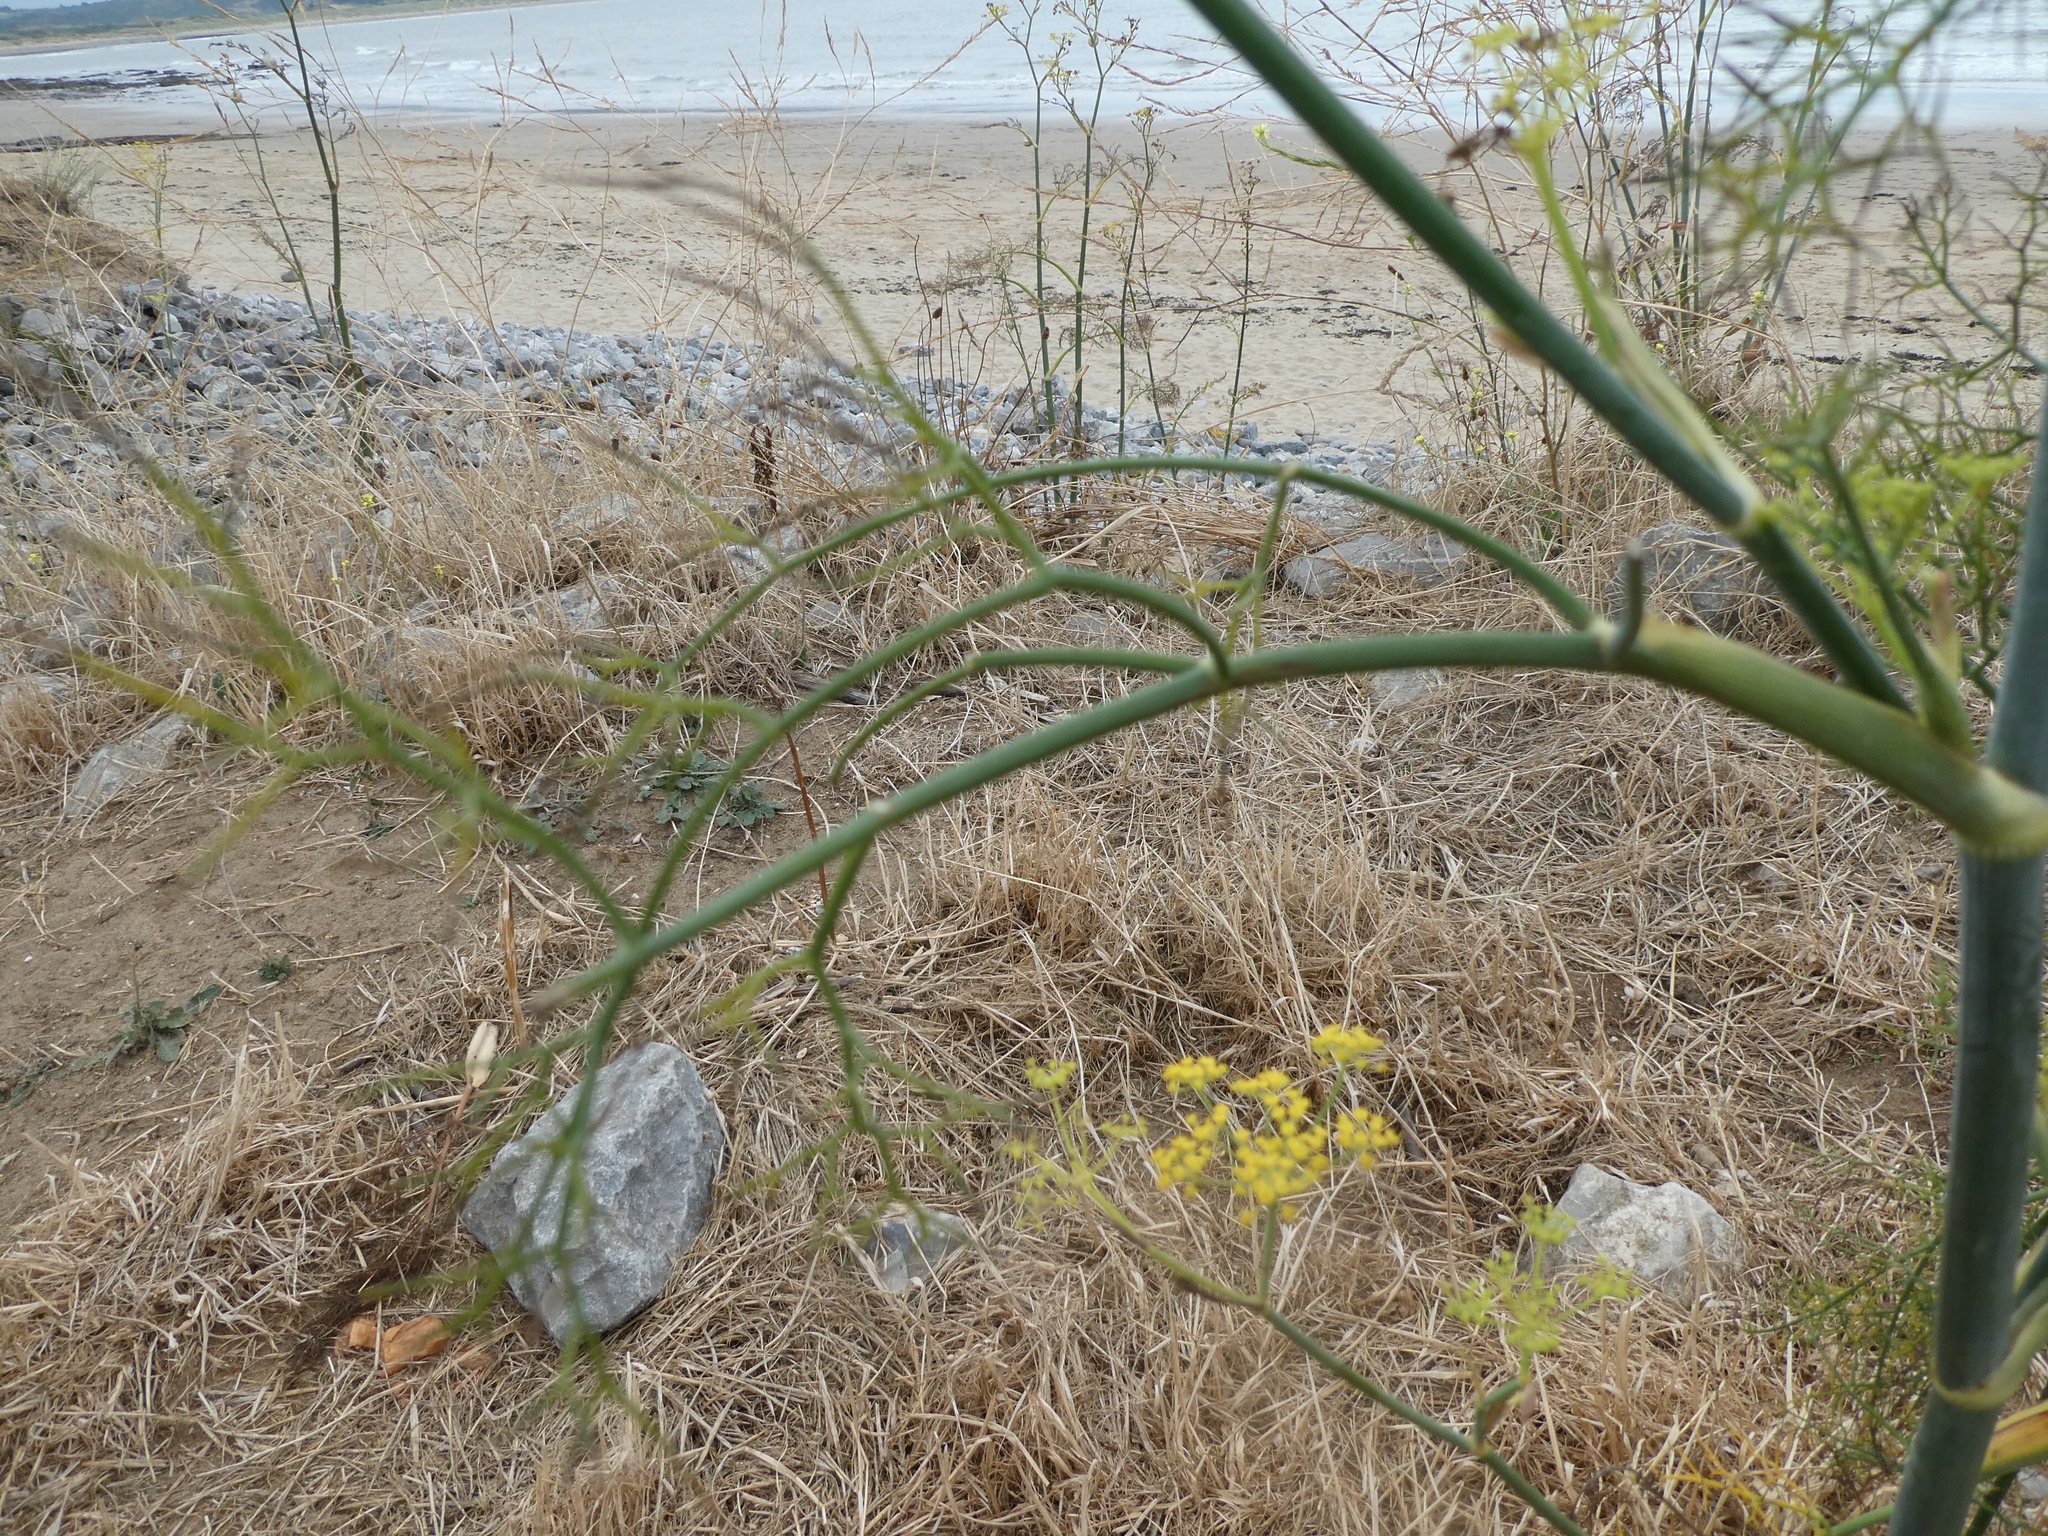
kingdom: Plantae
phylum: Tracheophyta
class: Magnoliopsida
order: Apiales
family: Apiaceae
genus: Foeniculum
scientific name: Foeniculum vulgare
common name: Fennel
